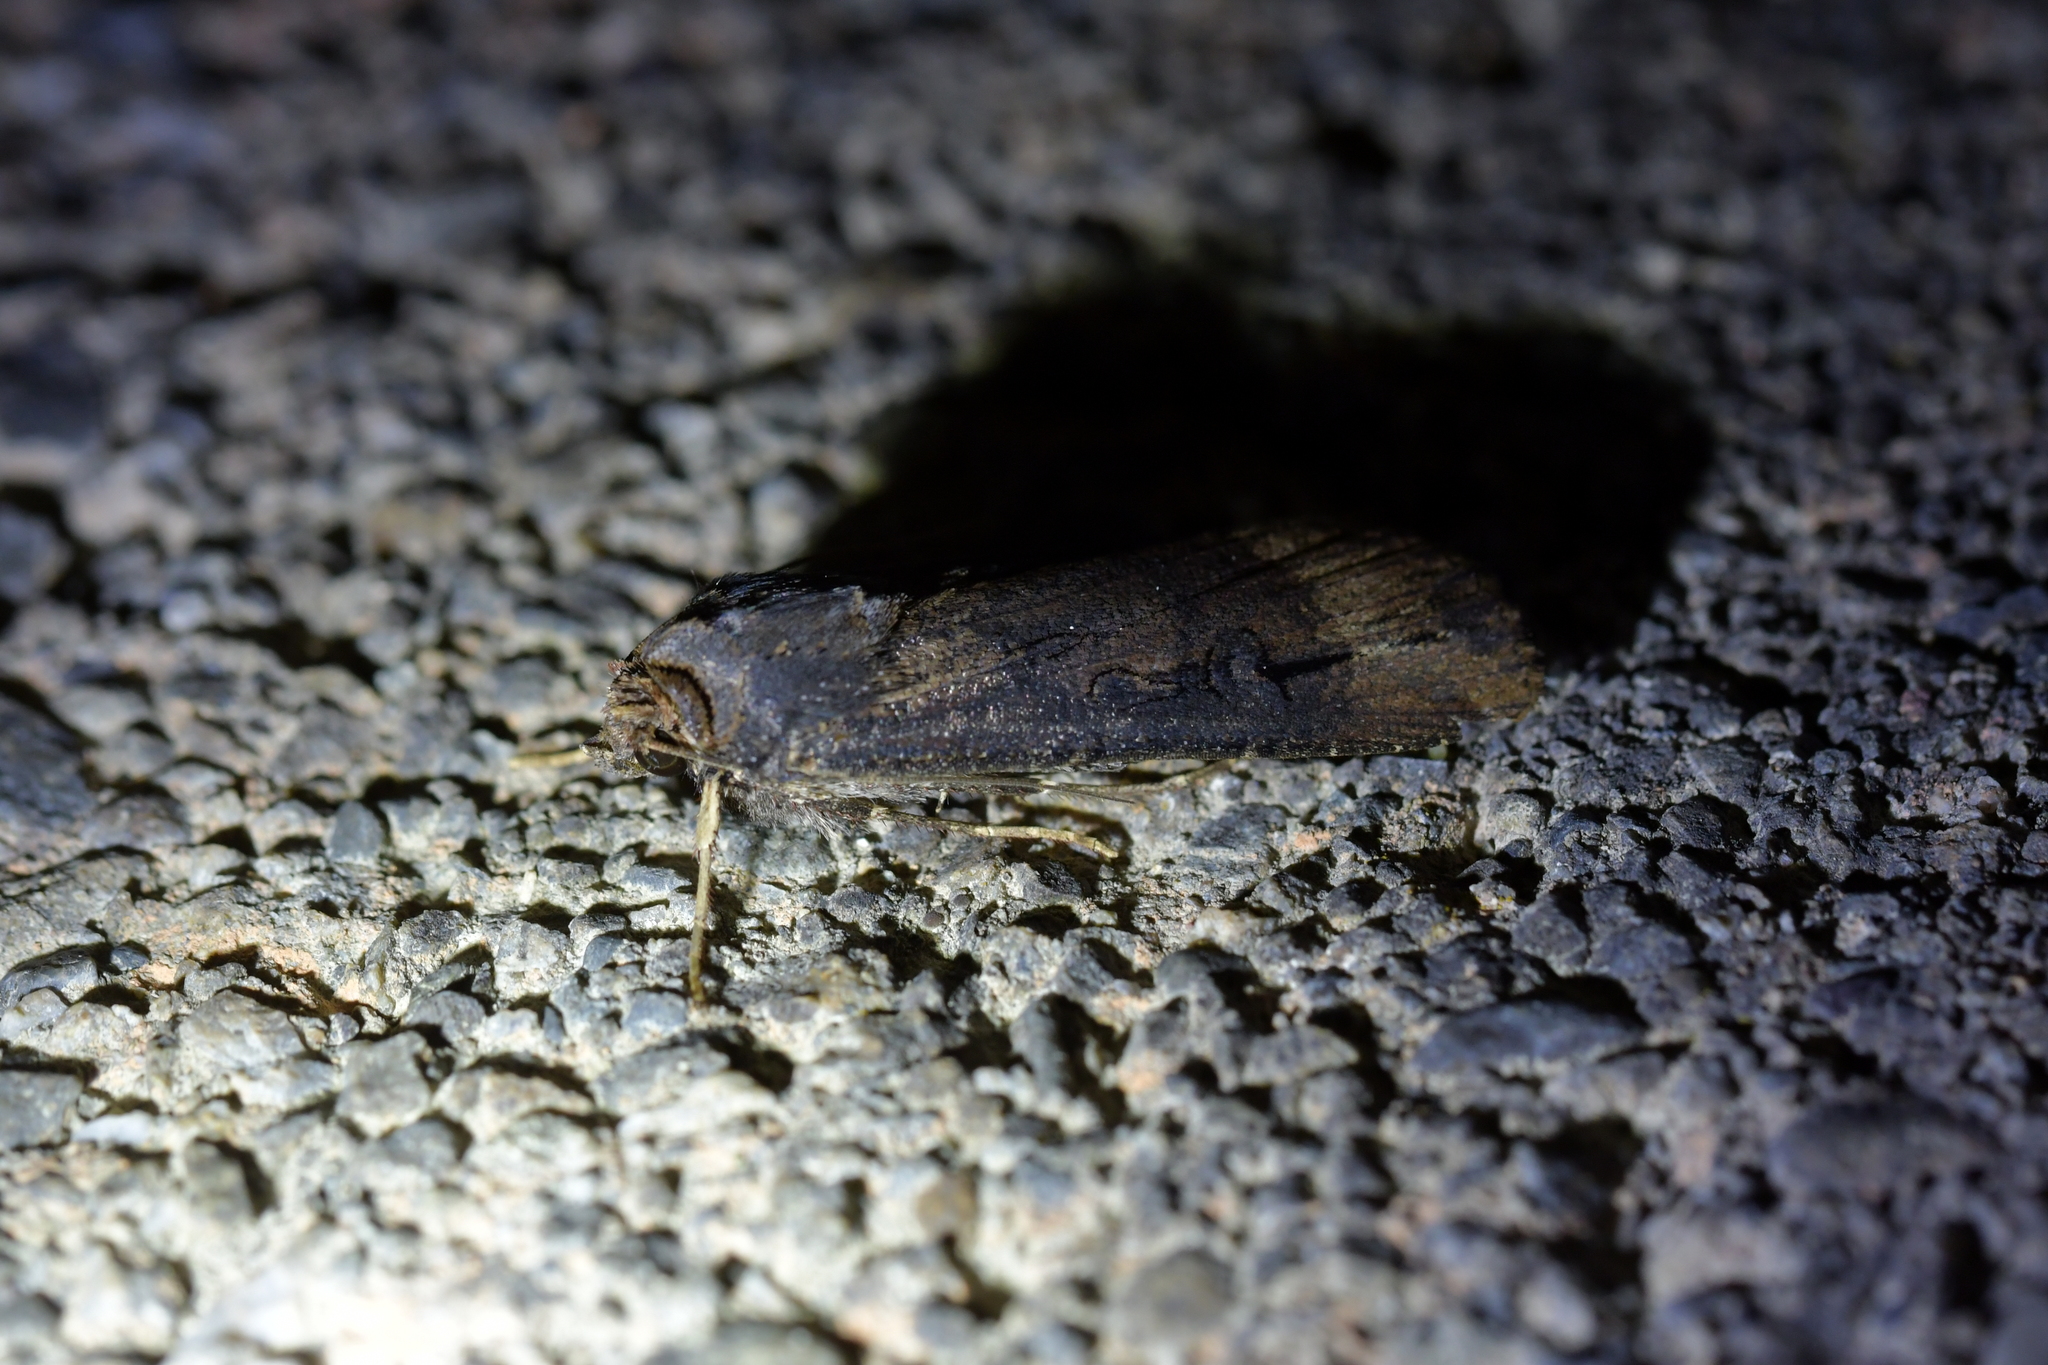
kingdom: Animalia
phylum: Arthropoda
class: Insecta
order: Lepidoptera
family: Noctuidae
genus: Agrotis
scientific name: Agrotis ipsilon
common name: Dark sword-grass
